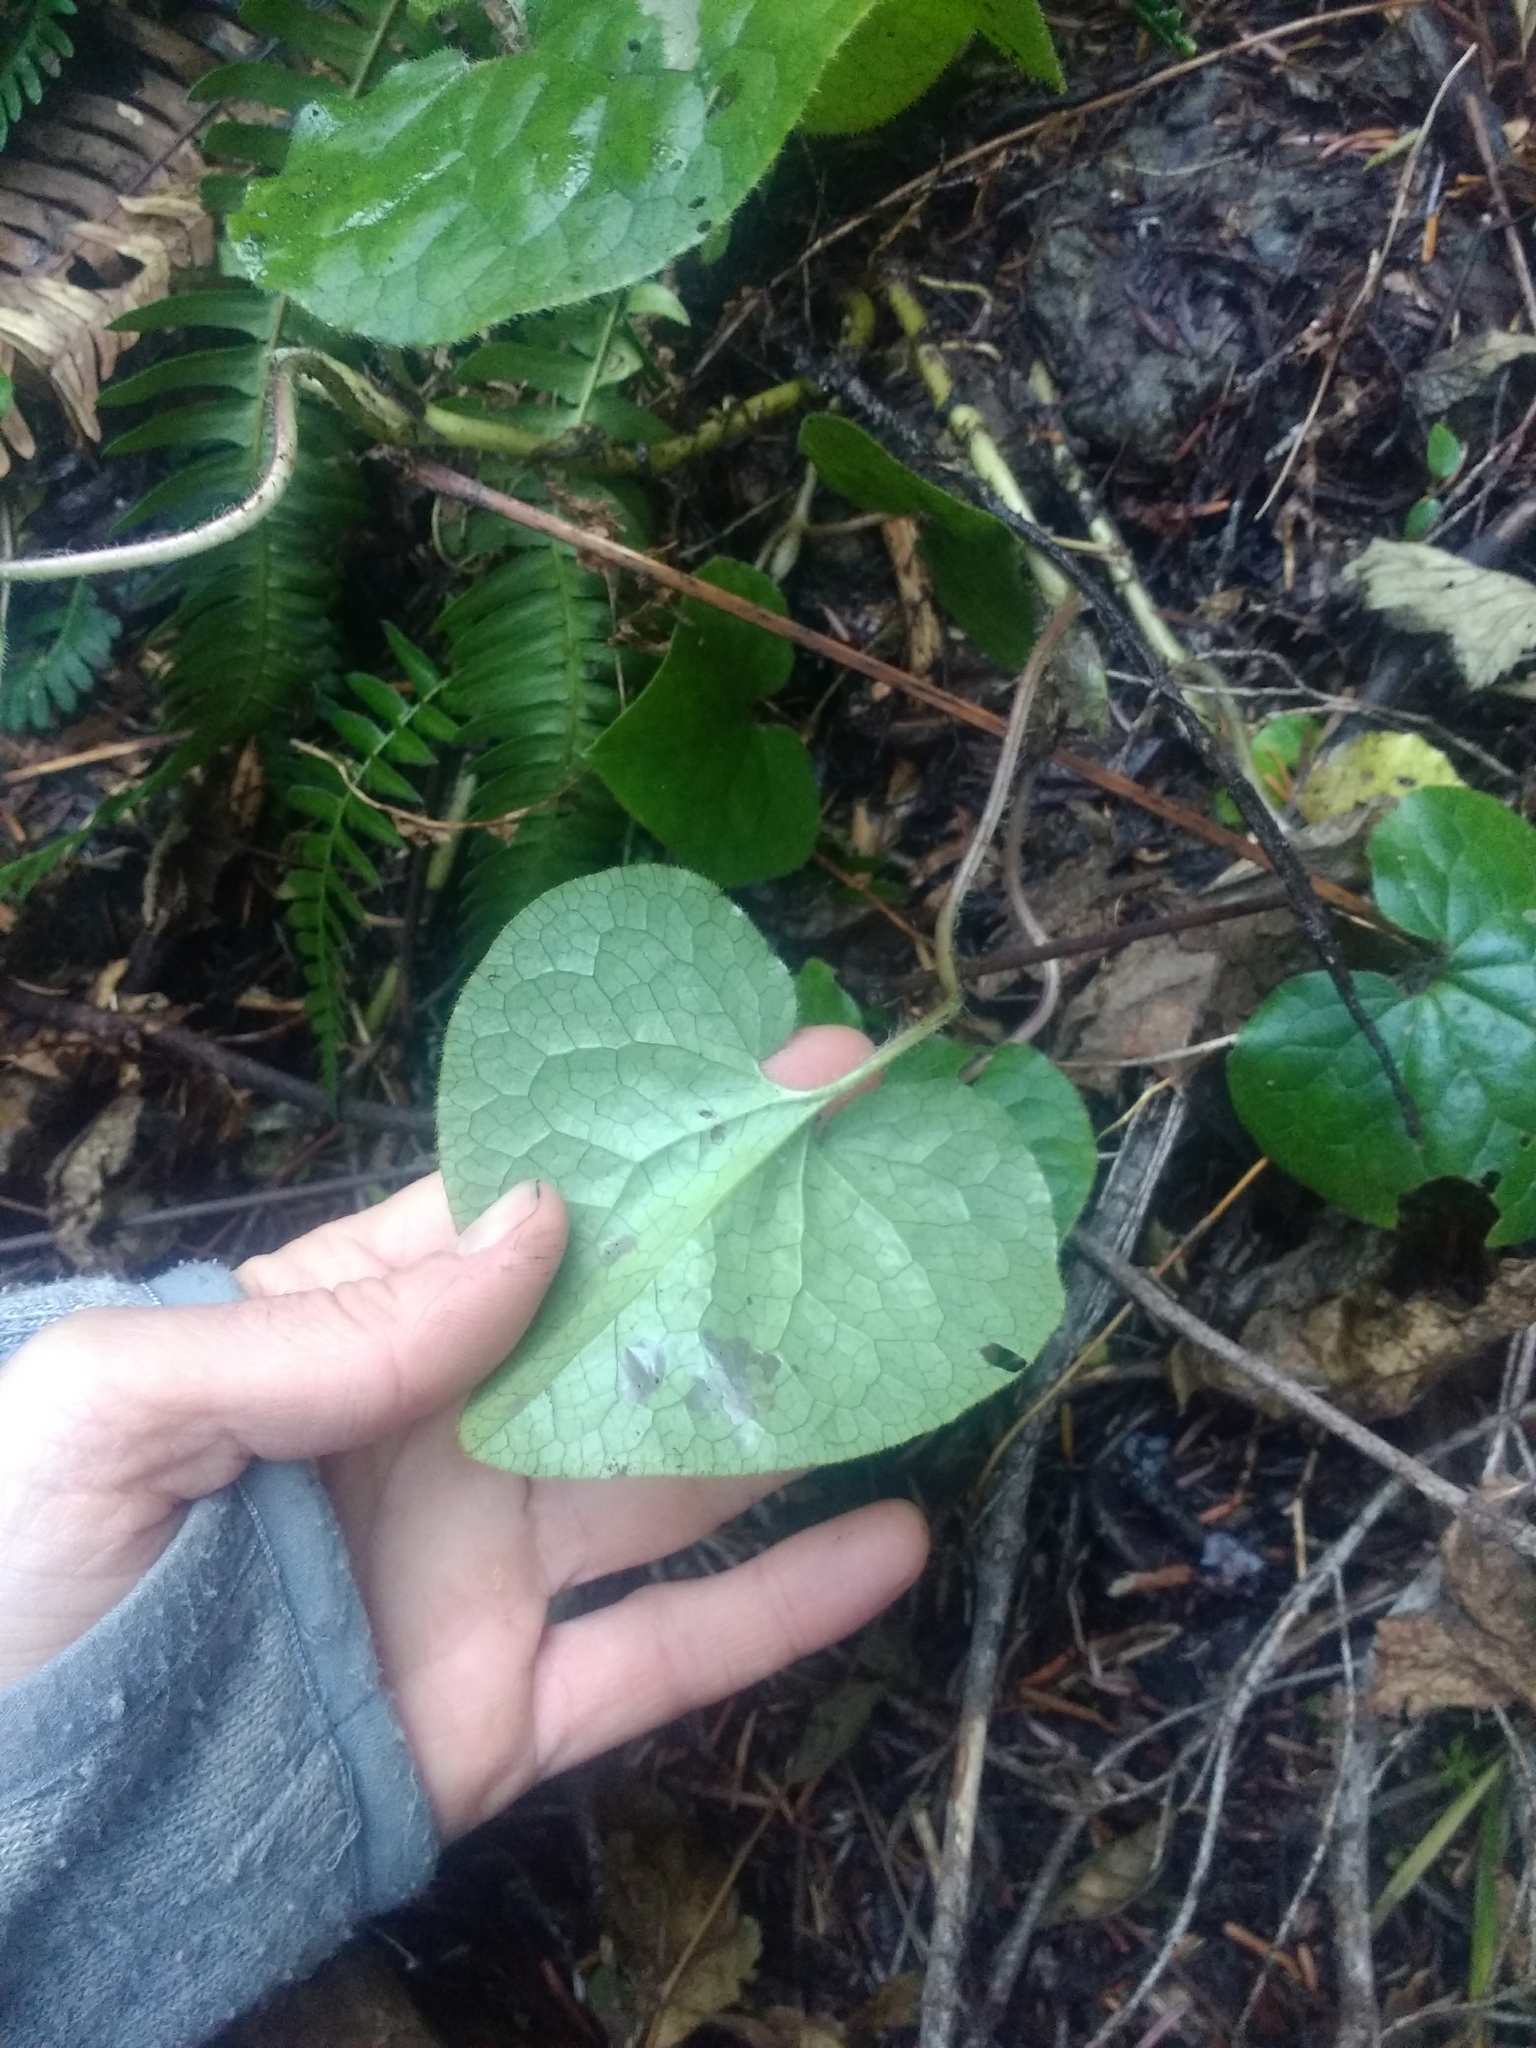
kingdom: Plantae
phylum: Tracheophyta
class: Magnoliopsida
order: Piperales
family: Aristolochiaceae
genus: Asarum
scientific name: Asarum caudatum
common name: Wild ginger
